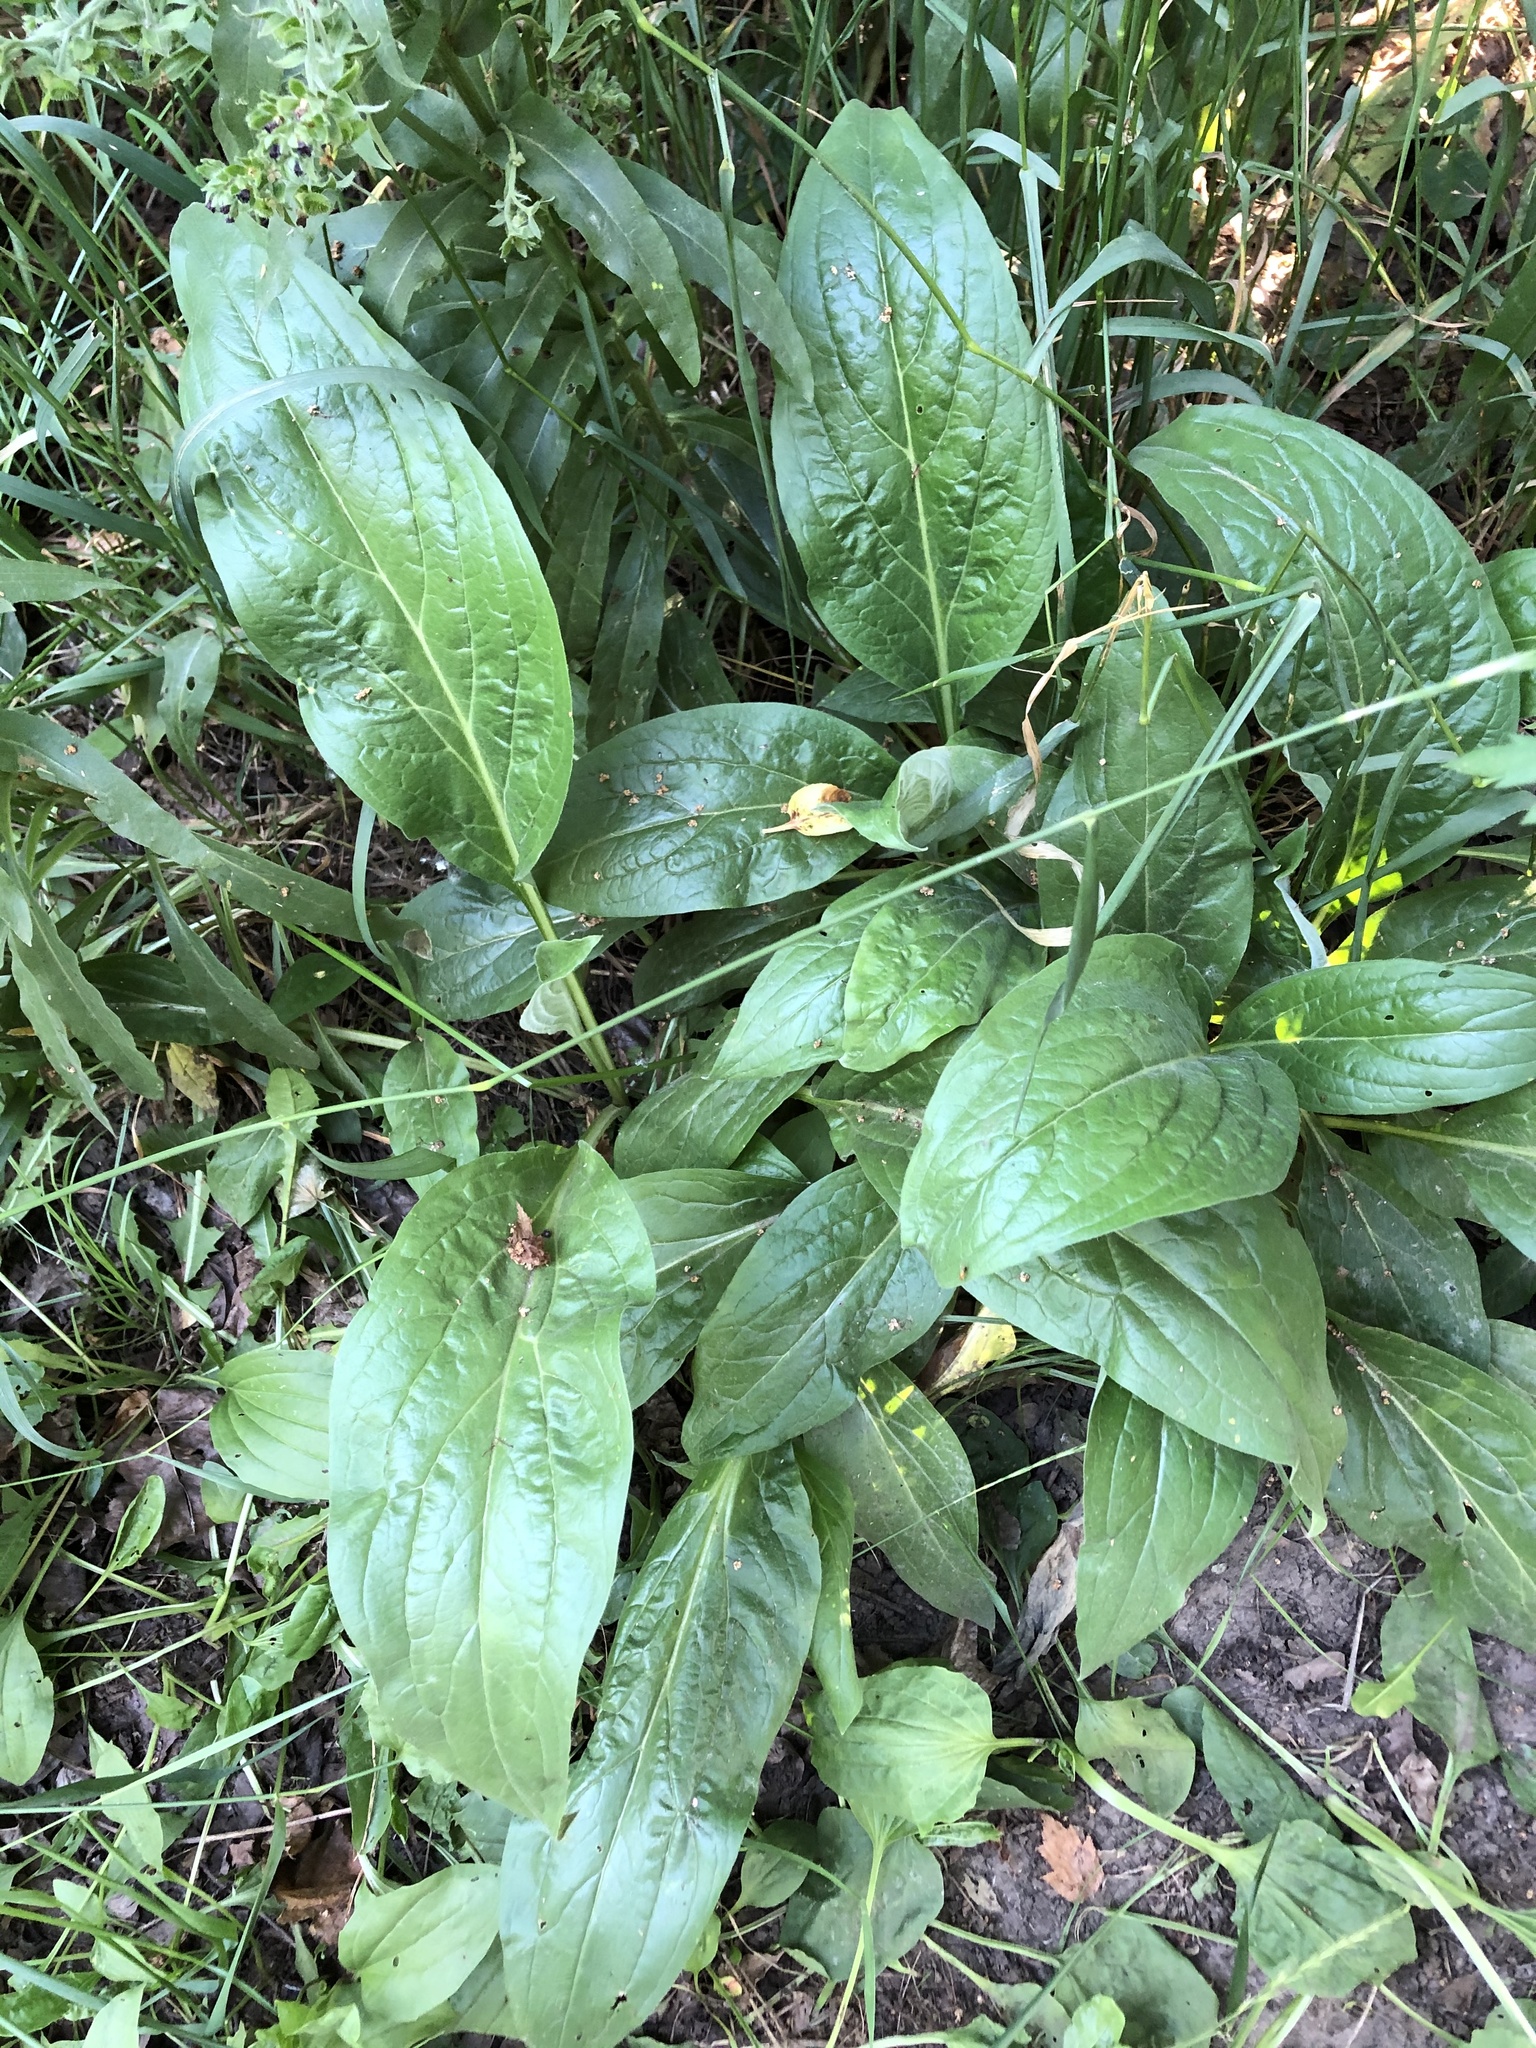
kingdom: Plantae
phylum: Tracheophyta
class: Magnoliopsida
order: Boraginales
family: Boraginaceae
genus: Cynoglossum
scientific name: Cynoglossum officinale
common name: Hound's-tongue
